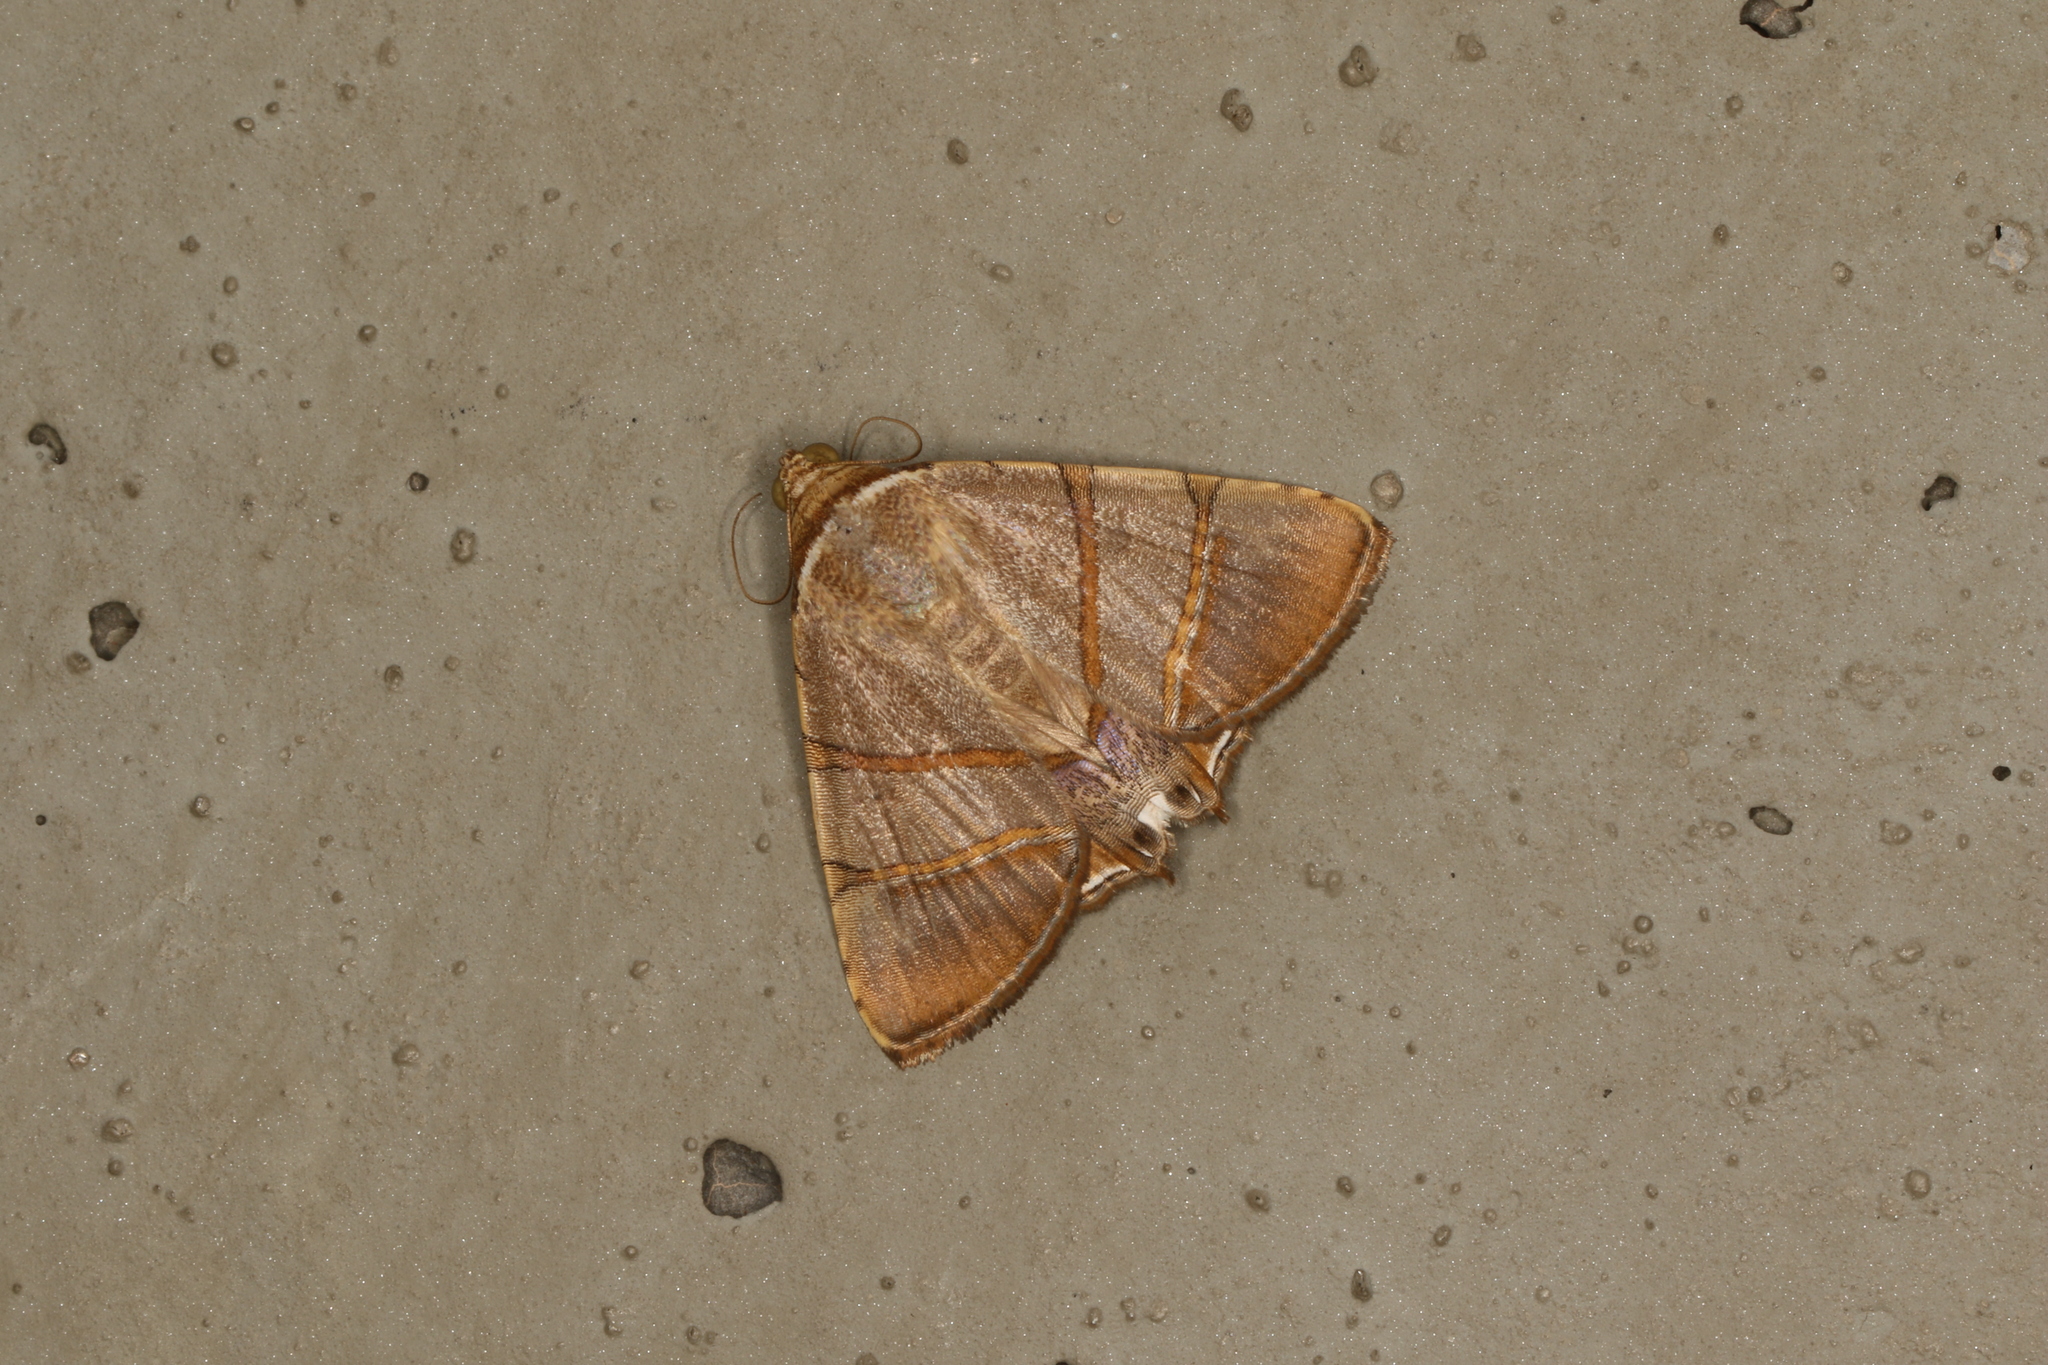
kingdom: Animalia
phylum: Arthropoda
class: Insecta
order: Lepidoptera
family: Erebidae
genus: Eulepidotis
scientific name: Eulepidotis juncida
